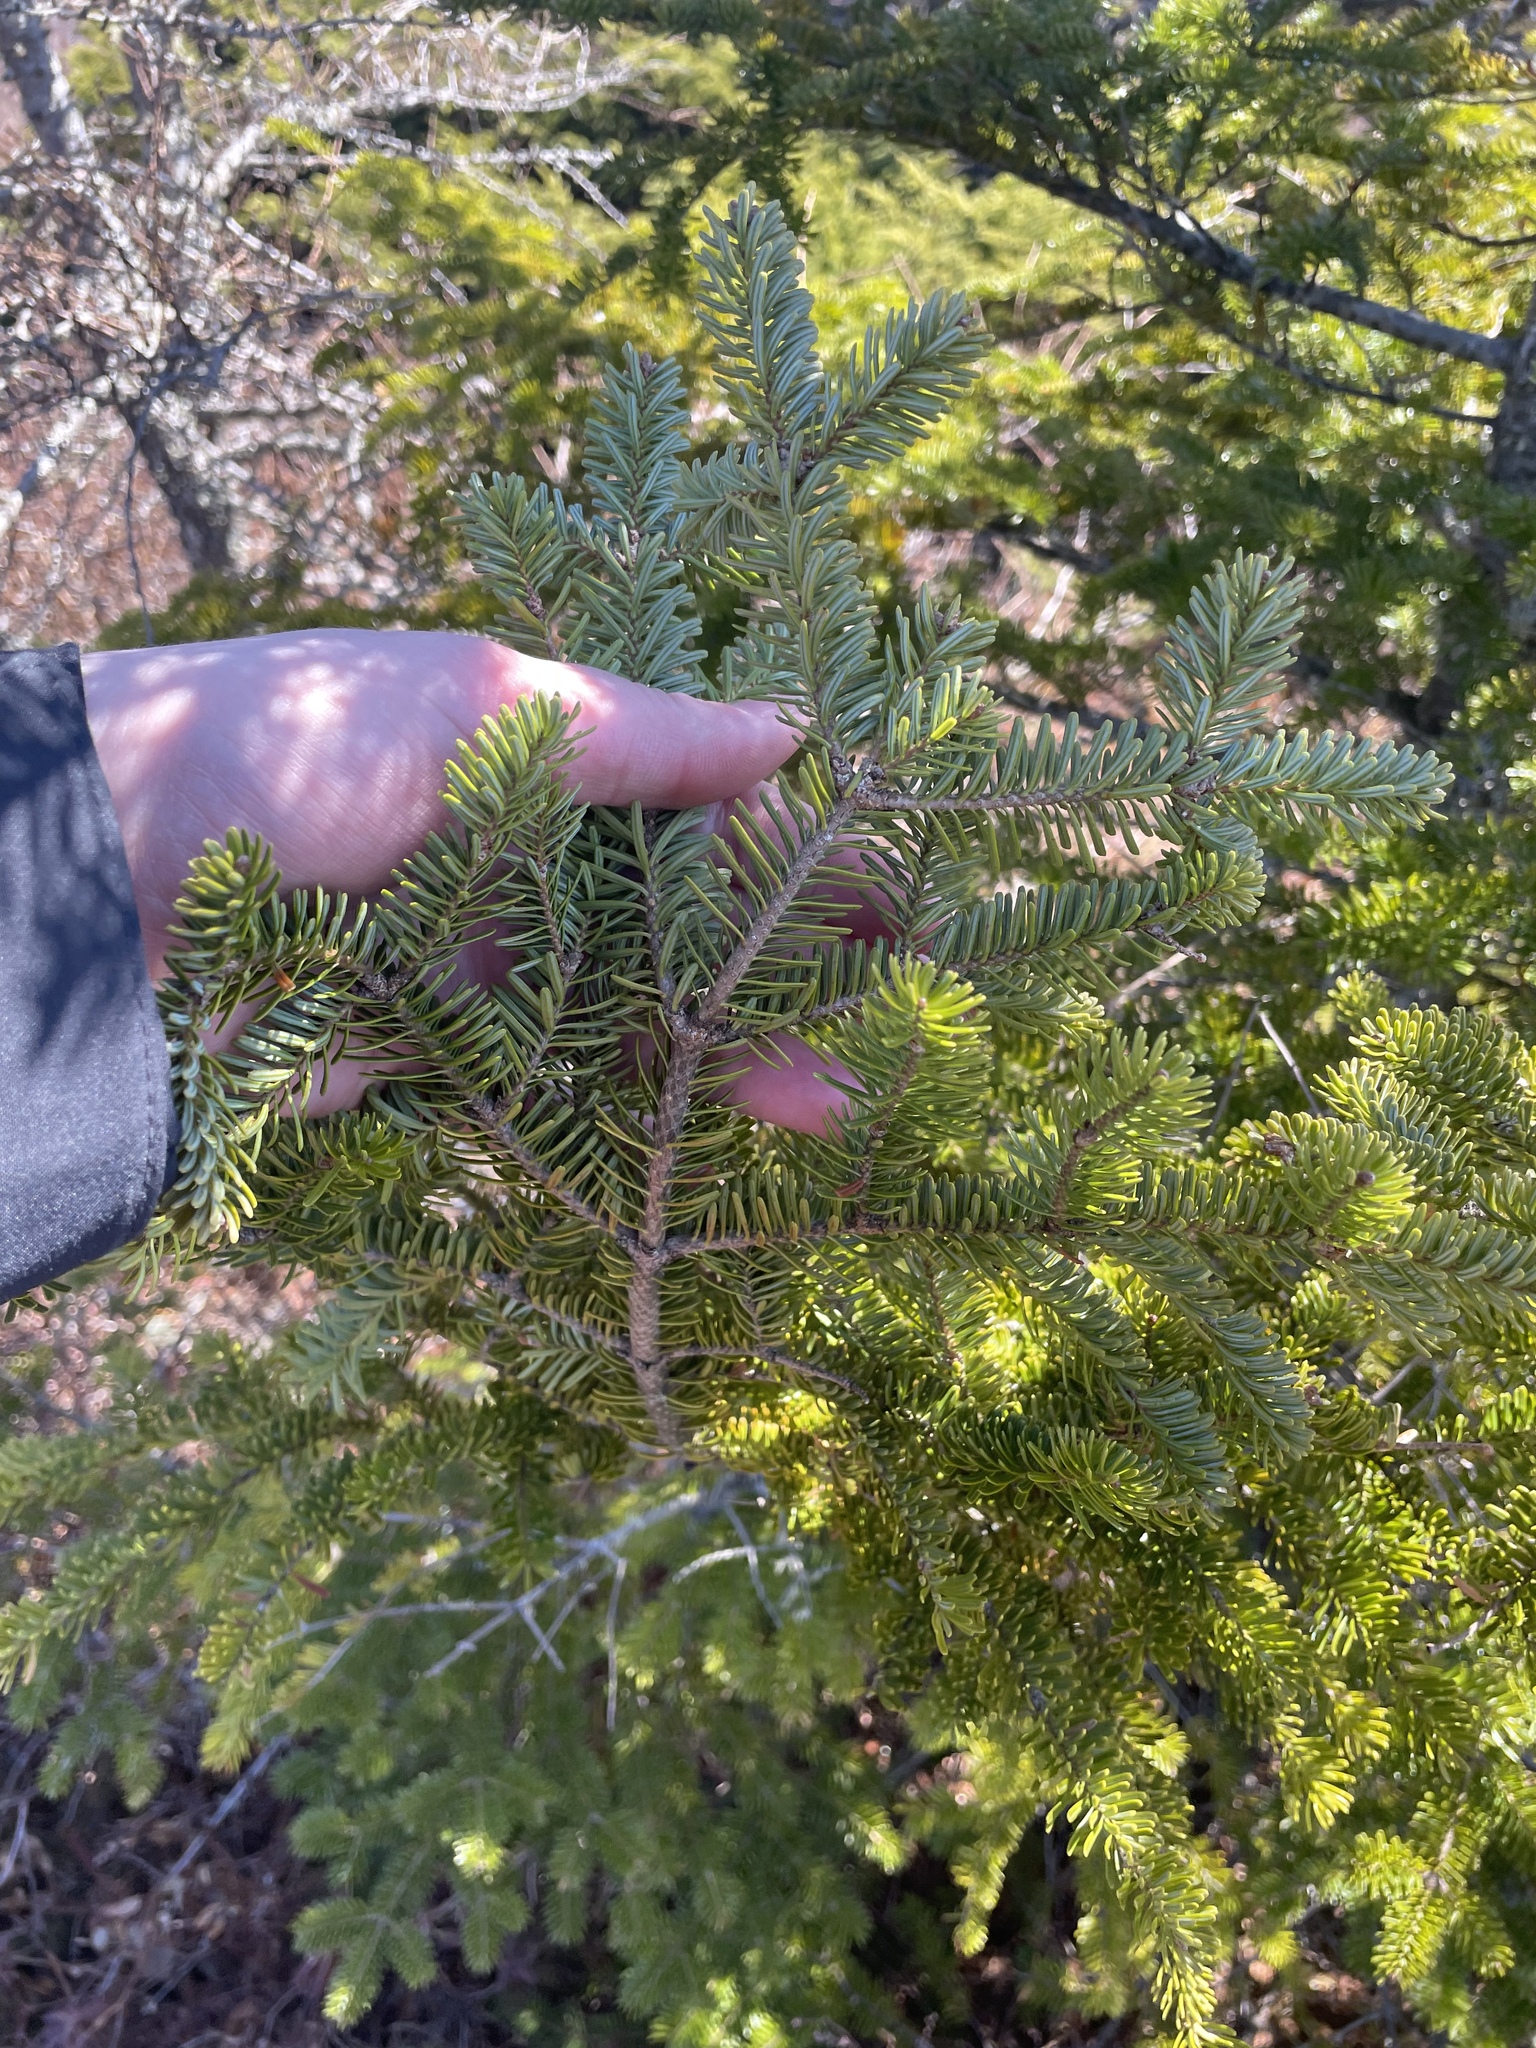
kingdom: Plantae
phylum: Tracheophyta
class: Pinopsida
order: Pinales
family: Pinaceae
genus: Abies
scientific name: Abies balsamea
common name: Balsam fir
